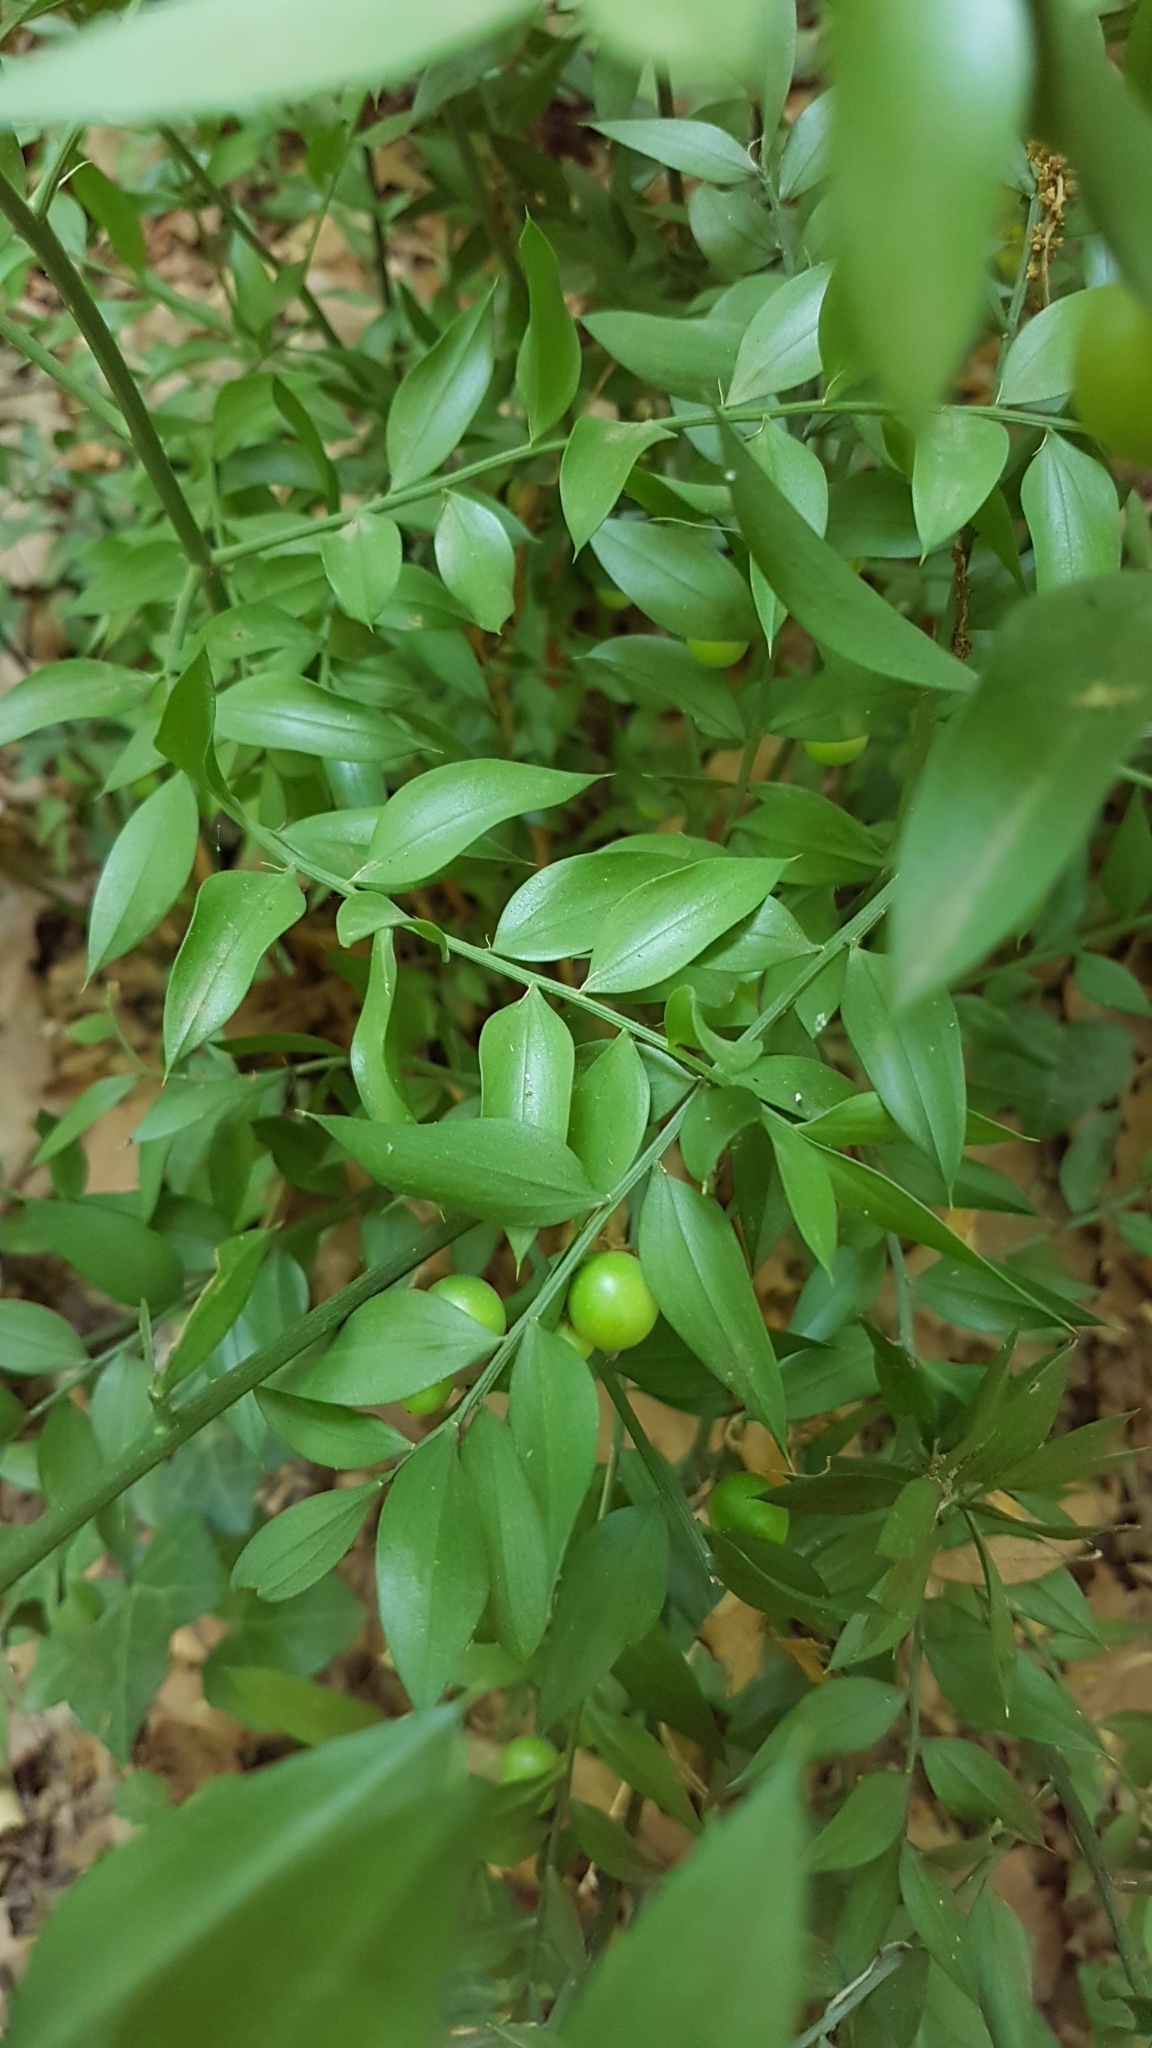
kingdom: Plantae
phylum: Tracheophyta
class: Liliopsida
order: Asparagales
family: Asparagaceae
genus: Ruscus
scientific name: Ruscus aculeatus
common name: Butcher's-broom
